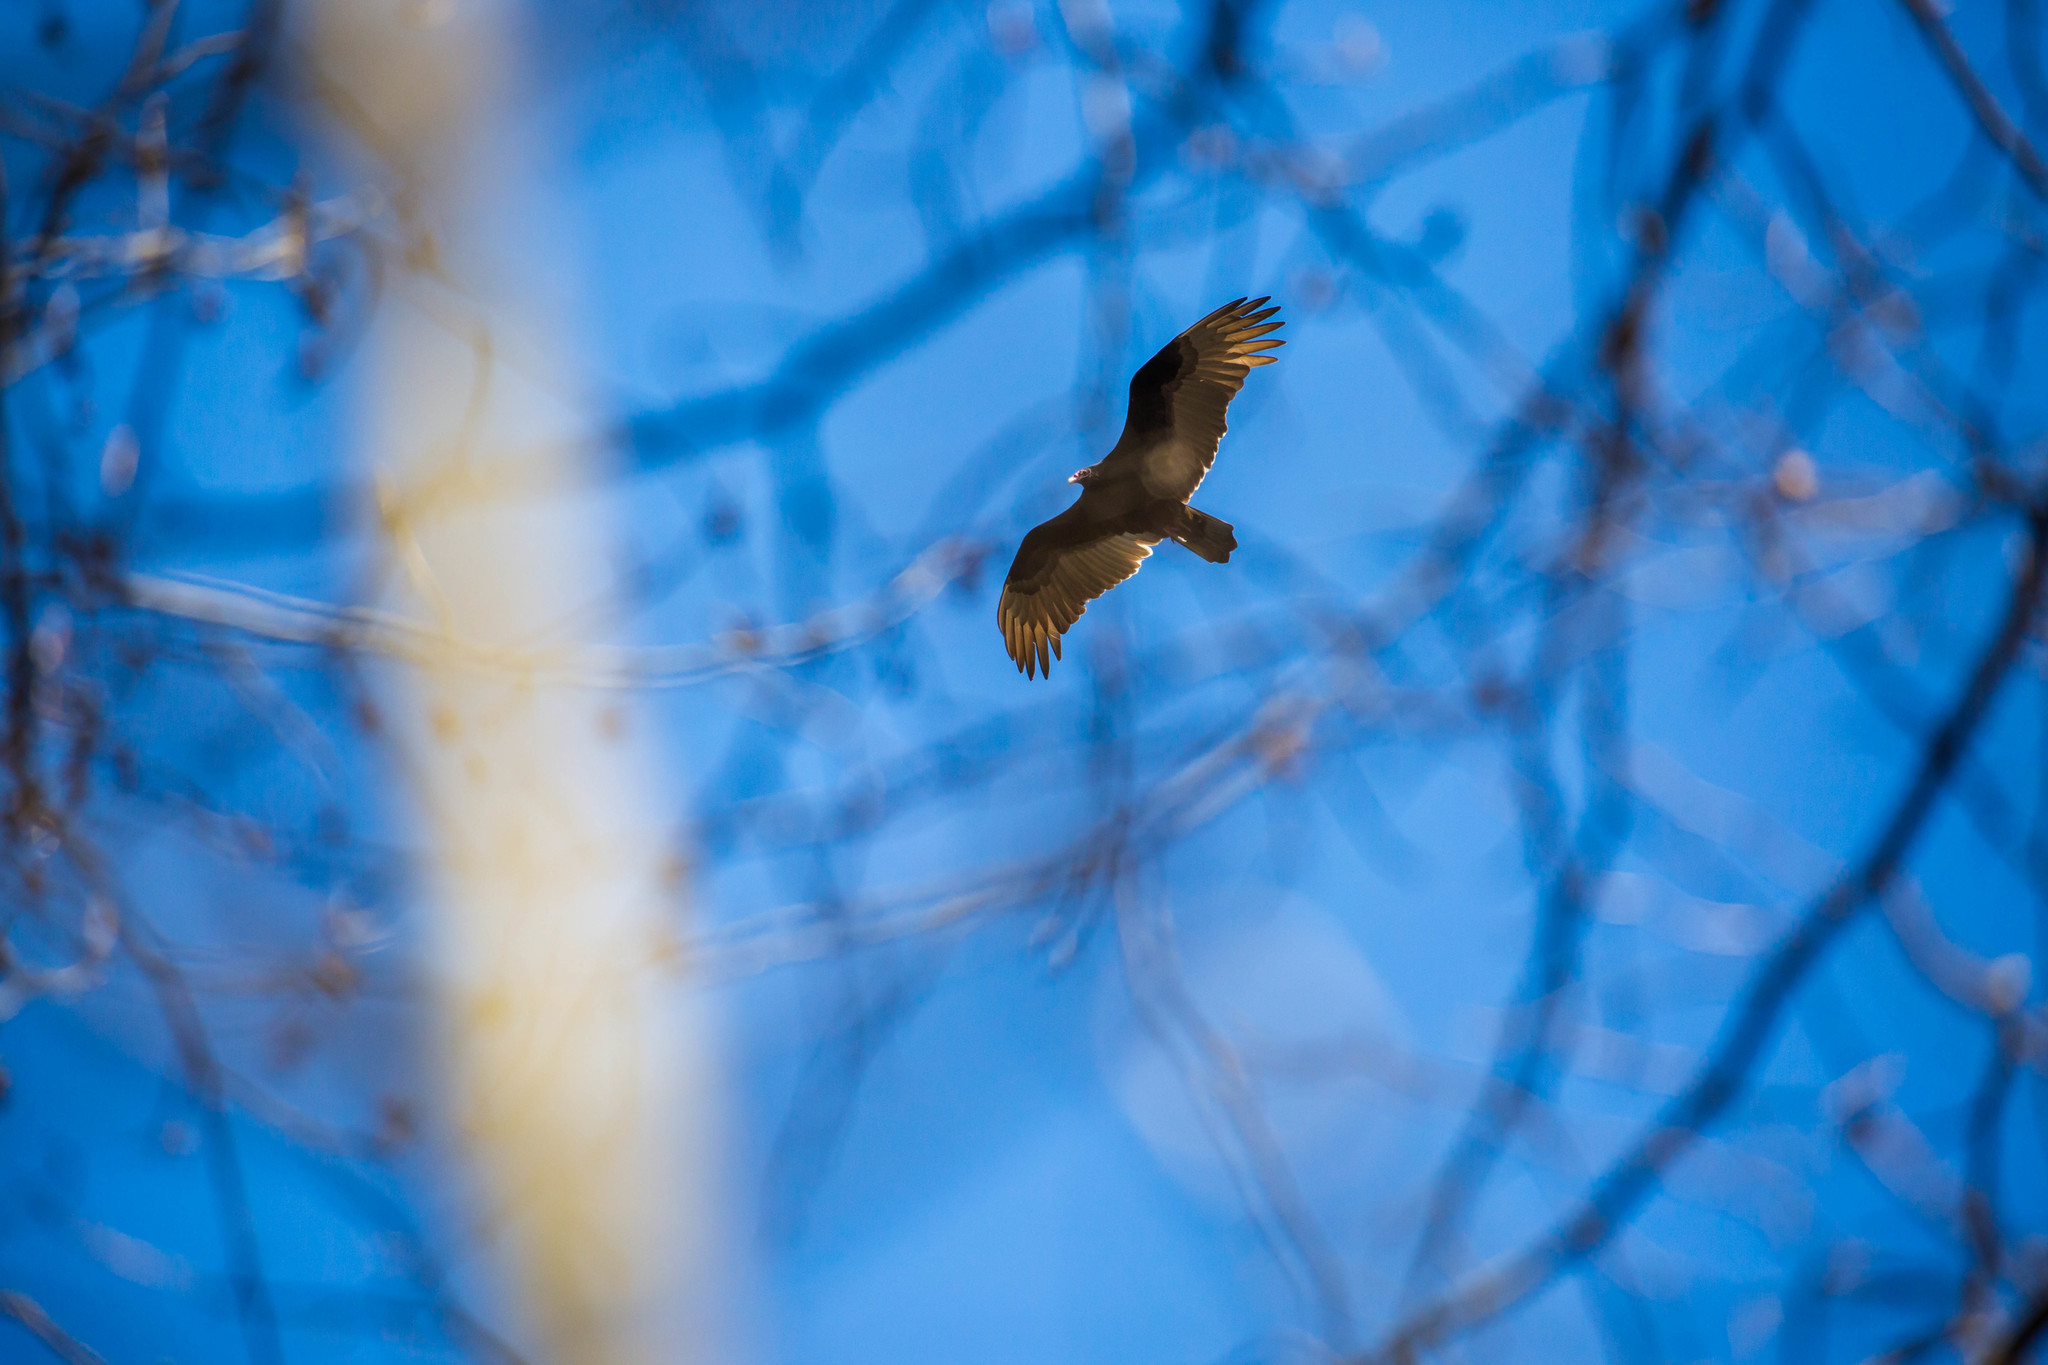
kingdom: Animalia
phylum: Chordata
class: Aves
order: Accipitriformes
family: Cathartidae
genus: Cathartes
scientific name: Cathartes aura
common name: Turkey vulture
